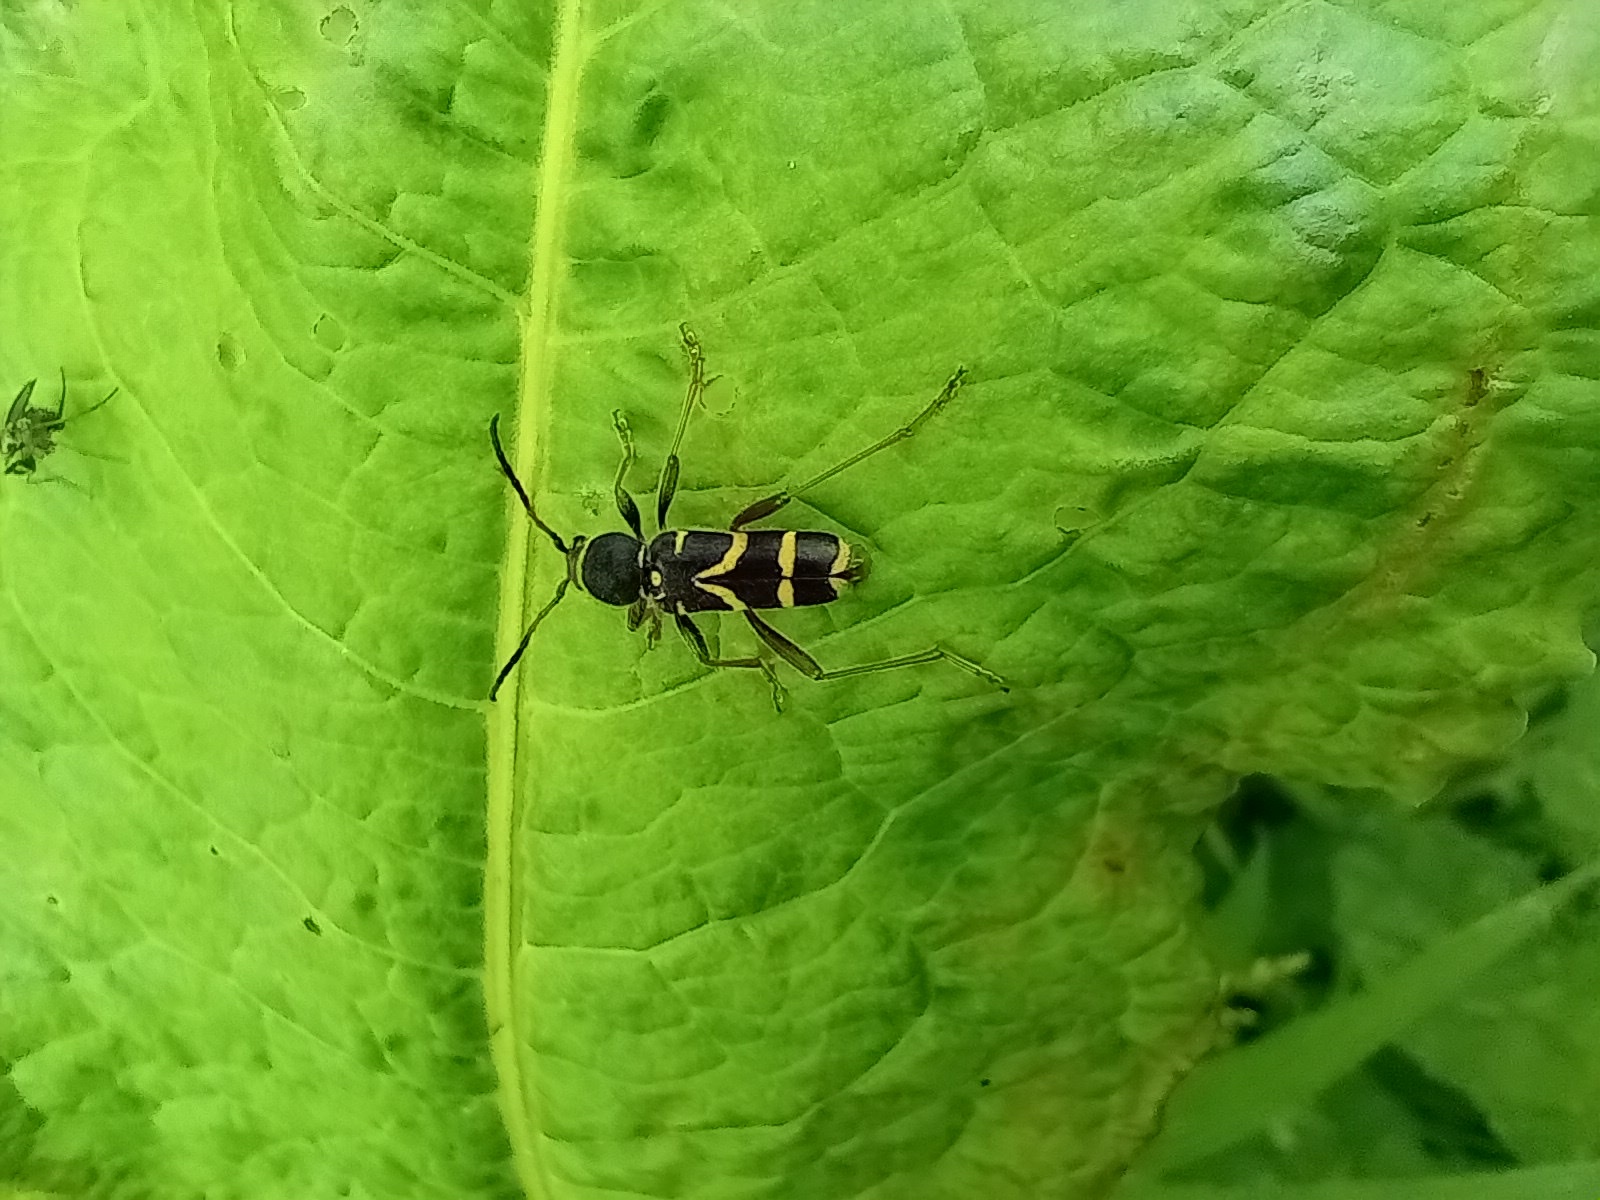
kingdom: Animalia
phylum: Arthropoda
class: Insecta
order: Coleoptera
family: Cerambycidae
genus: Clytus
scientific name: Clytus arietis
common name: Wasp beetle
